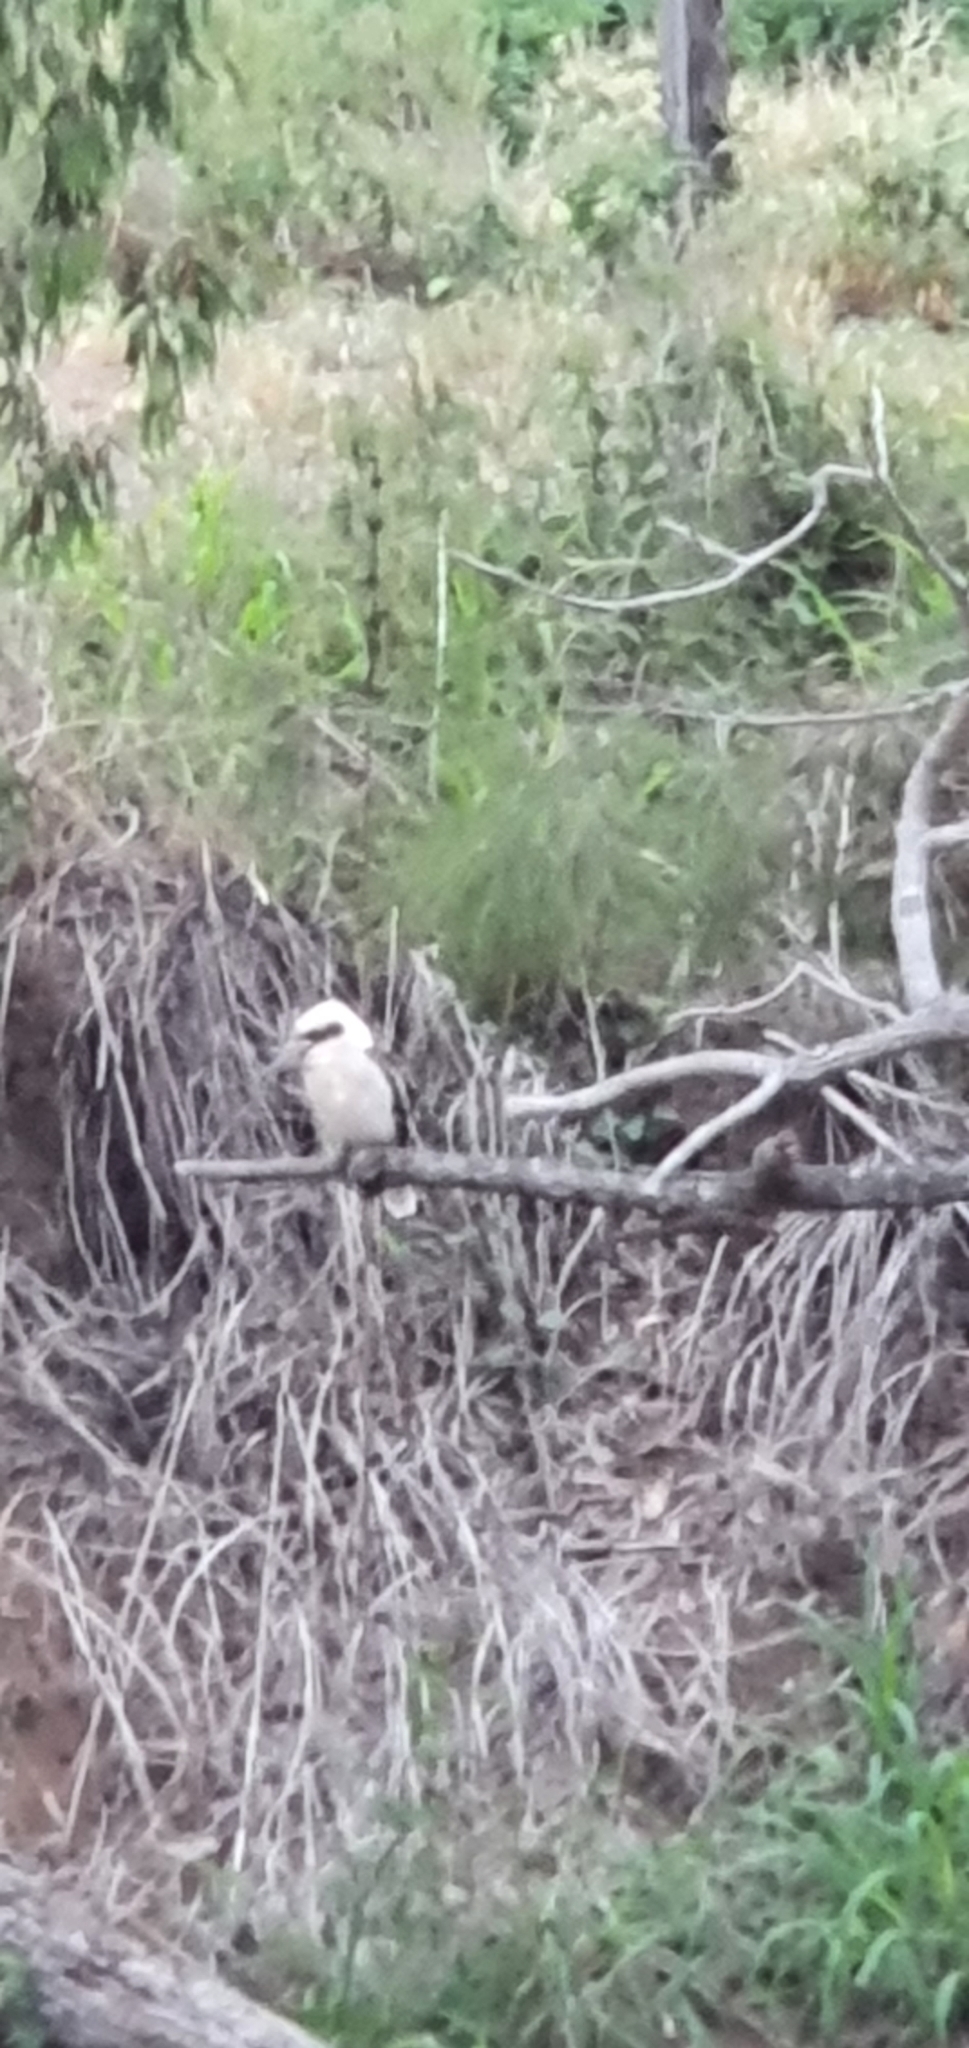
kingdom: Animalia
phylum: Chordata
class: Aves
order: Coraciiformes
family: Alcedinidae
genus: Dacelo
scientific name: Dacelo novaeguineae
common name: Laughing kookaburra
